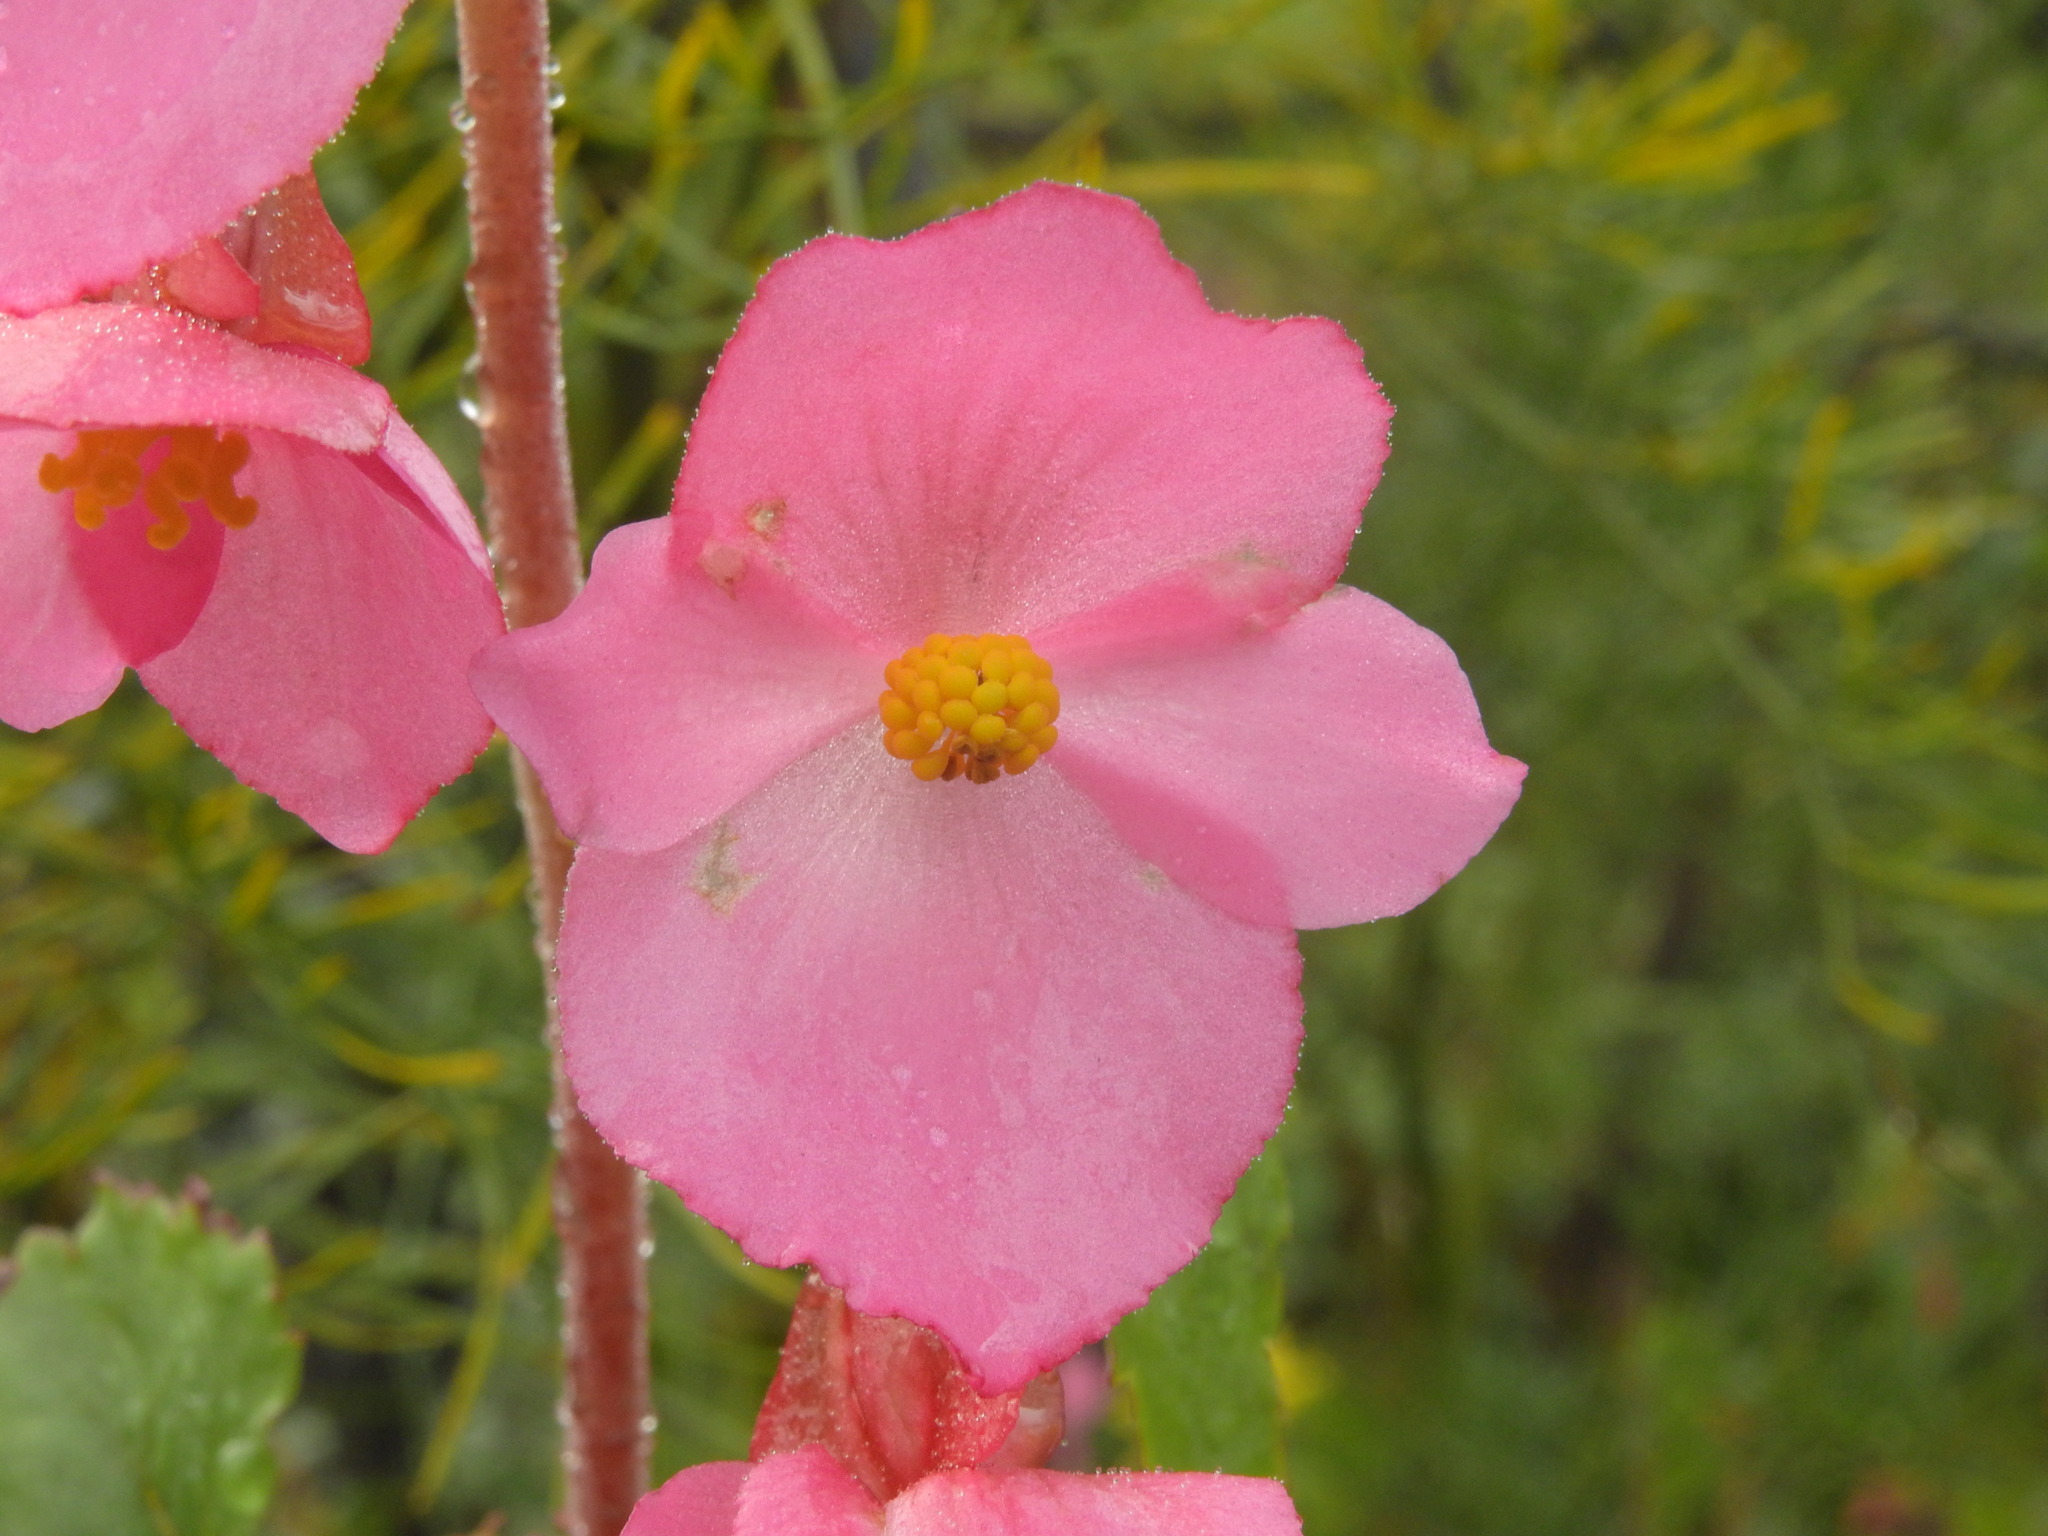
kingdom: Plantae
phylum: Tracheophyta
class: Magnoliopsida
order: Cucurbitales
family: Begoniaceae
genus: Begonia
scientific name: Begonia gracilis
